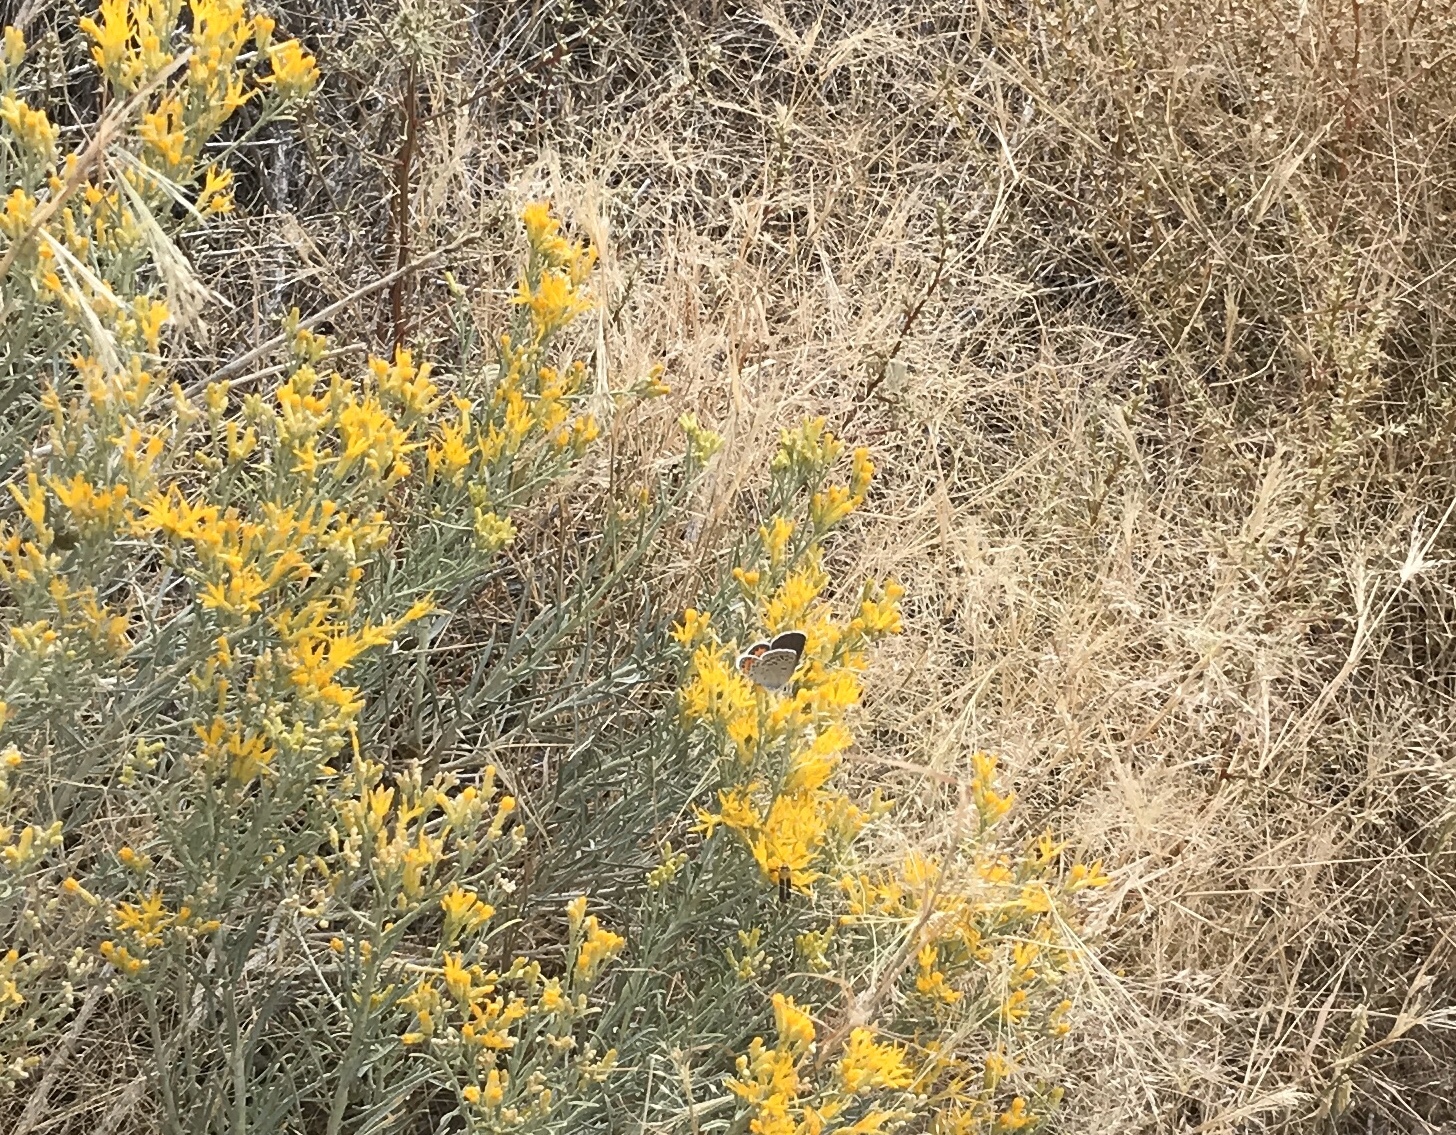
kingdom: Animalia
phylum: Arthropoda
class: Insecta
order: Lepidoptera
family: Lycaenidae
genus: Icaricia
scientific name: Icaricia lupini
